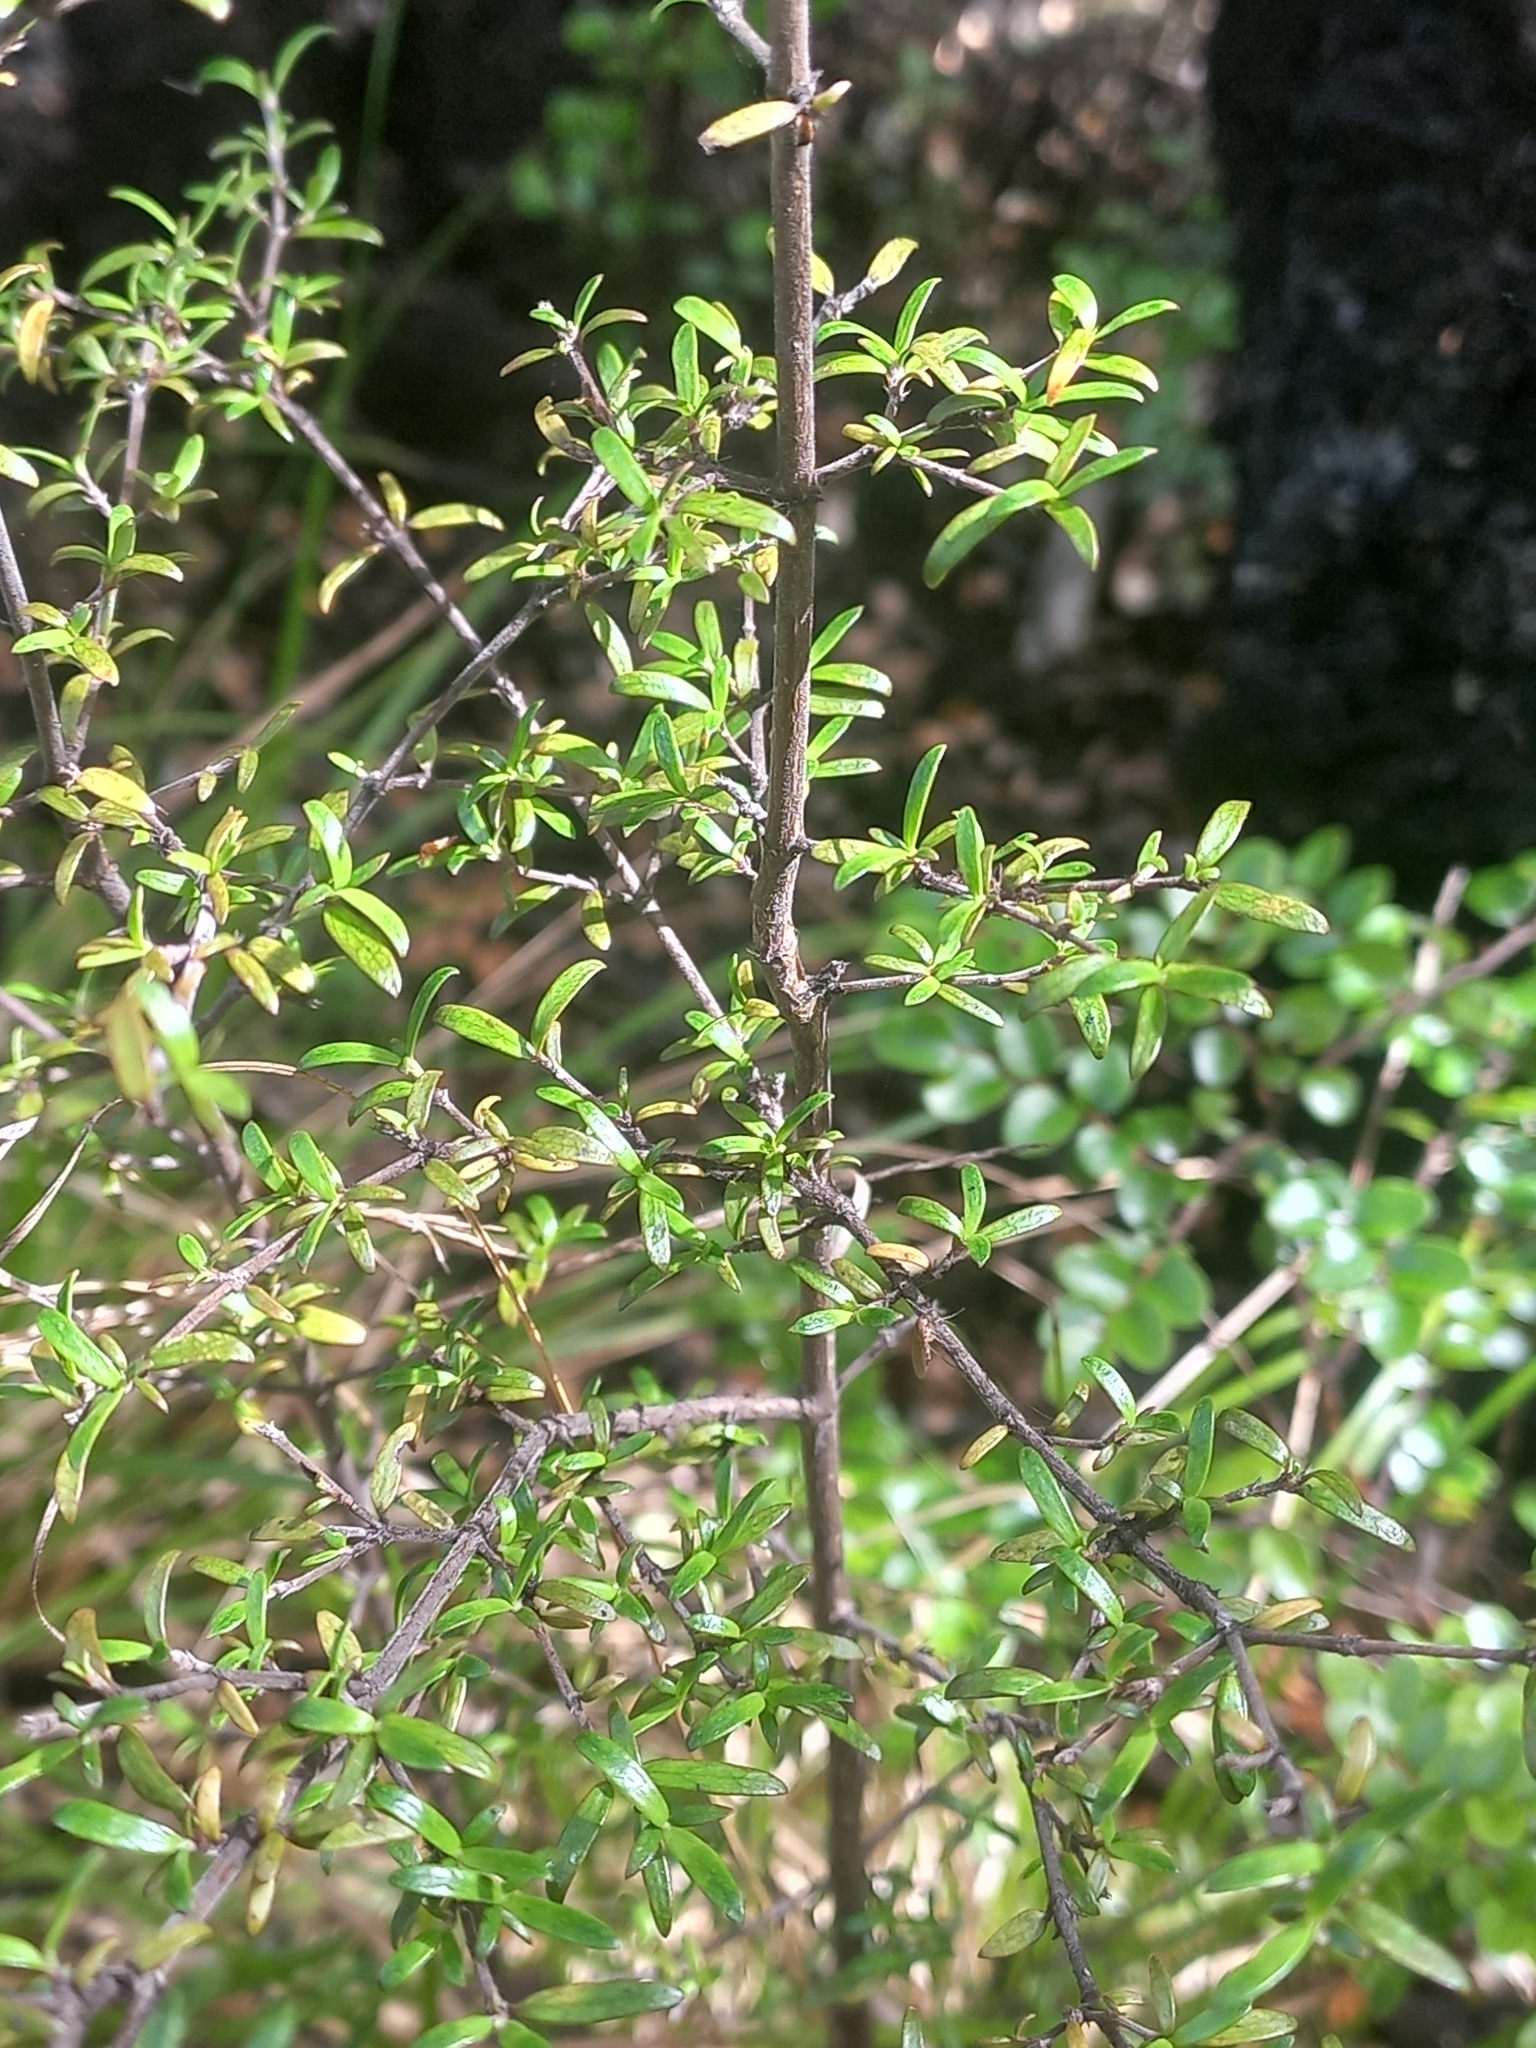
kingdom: Plantae
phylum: Tracheophyta
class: Magnoliopsida
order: Gentianales
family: Rubiaceae
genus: Coprosma
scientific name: Coprosma microcarpa
